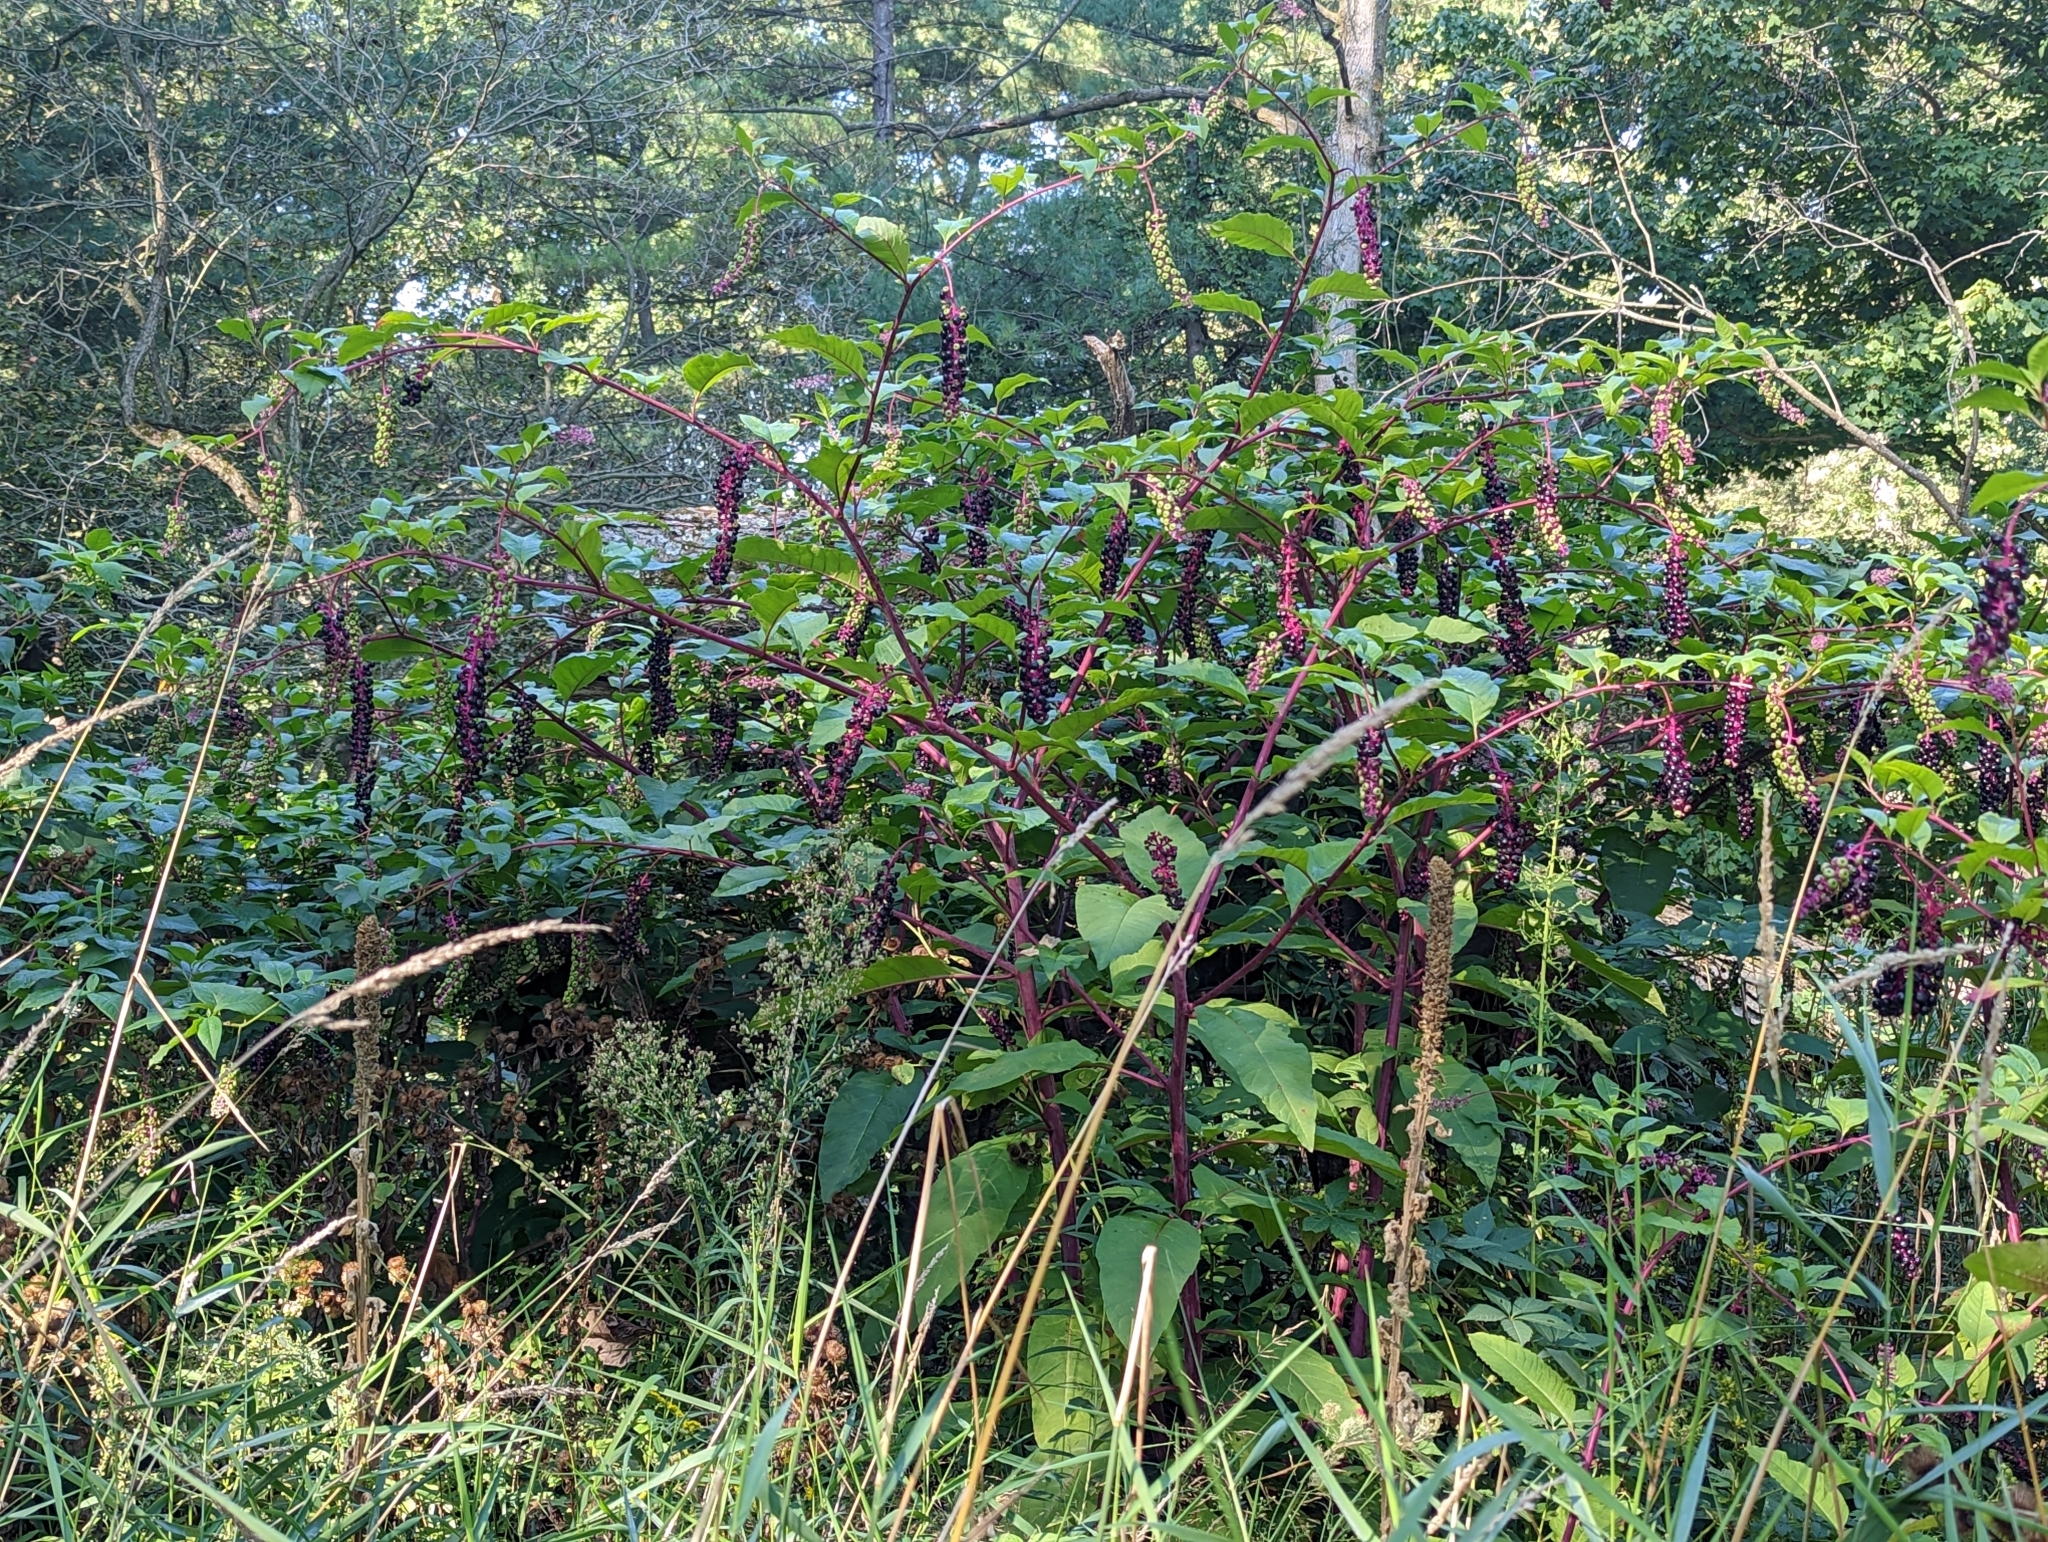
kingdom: Plantae
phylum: Tracheophyta
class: Magnoliopsida
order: Caryophyllales
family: Phytolaccaceae
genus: Phytolacca
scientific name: Phytolacca americana
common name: American pokeweed
